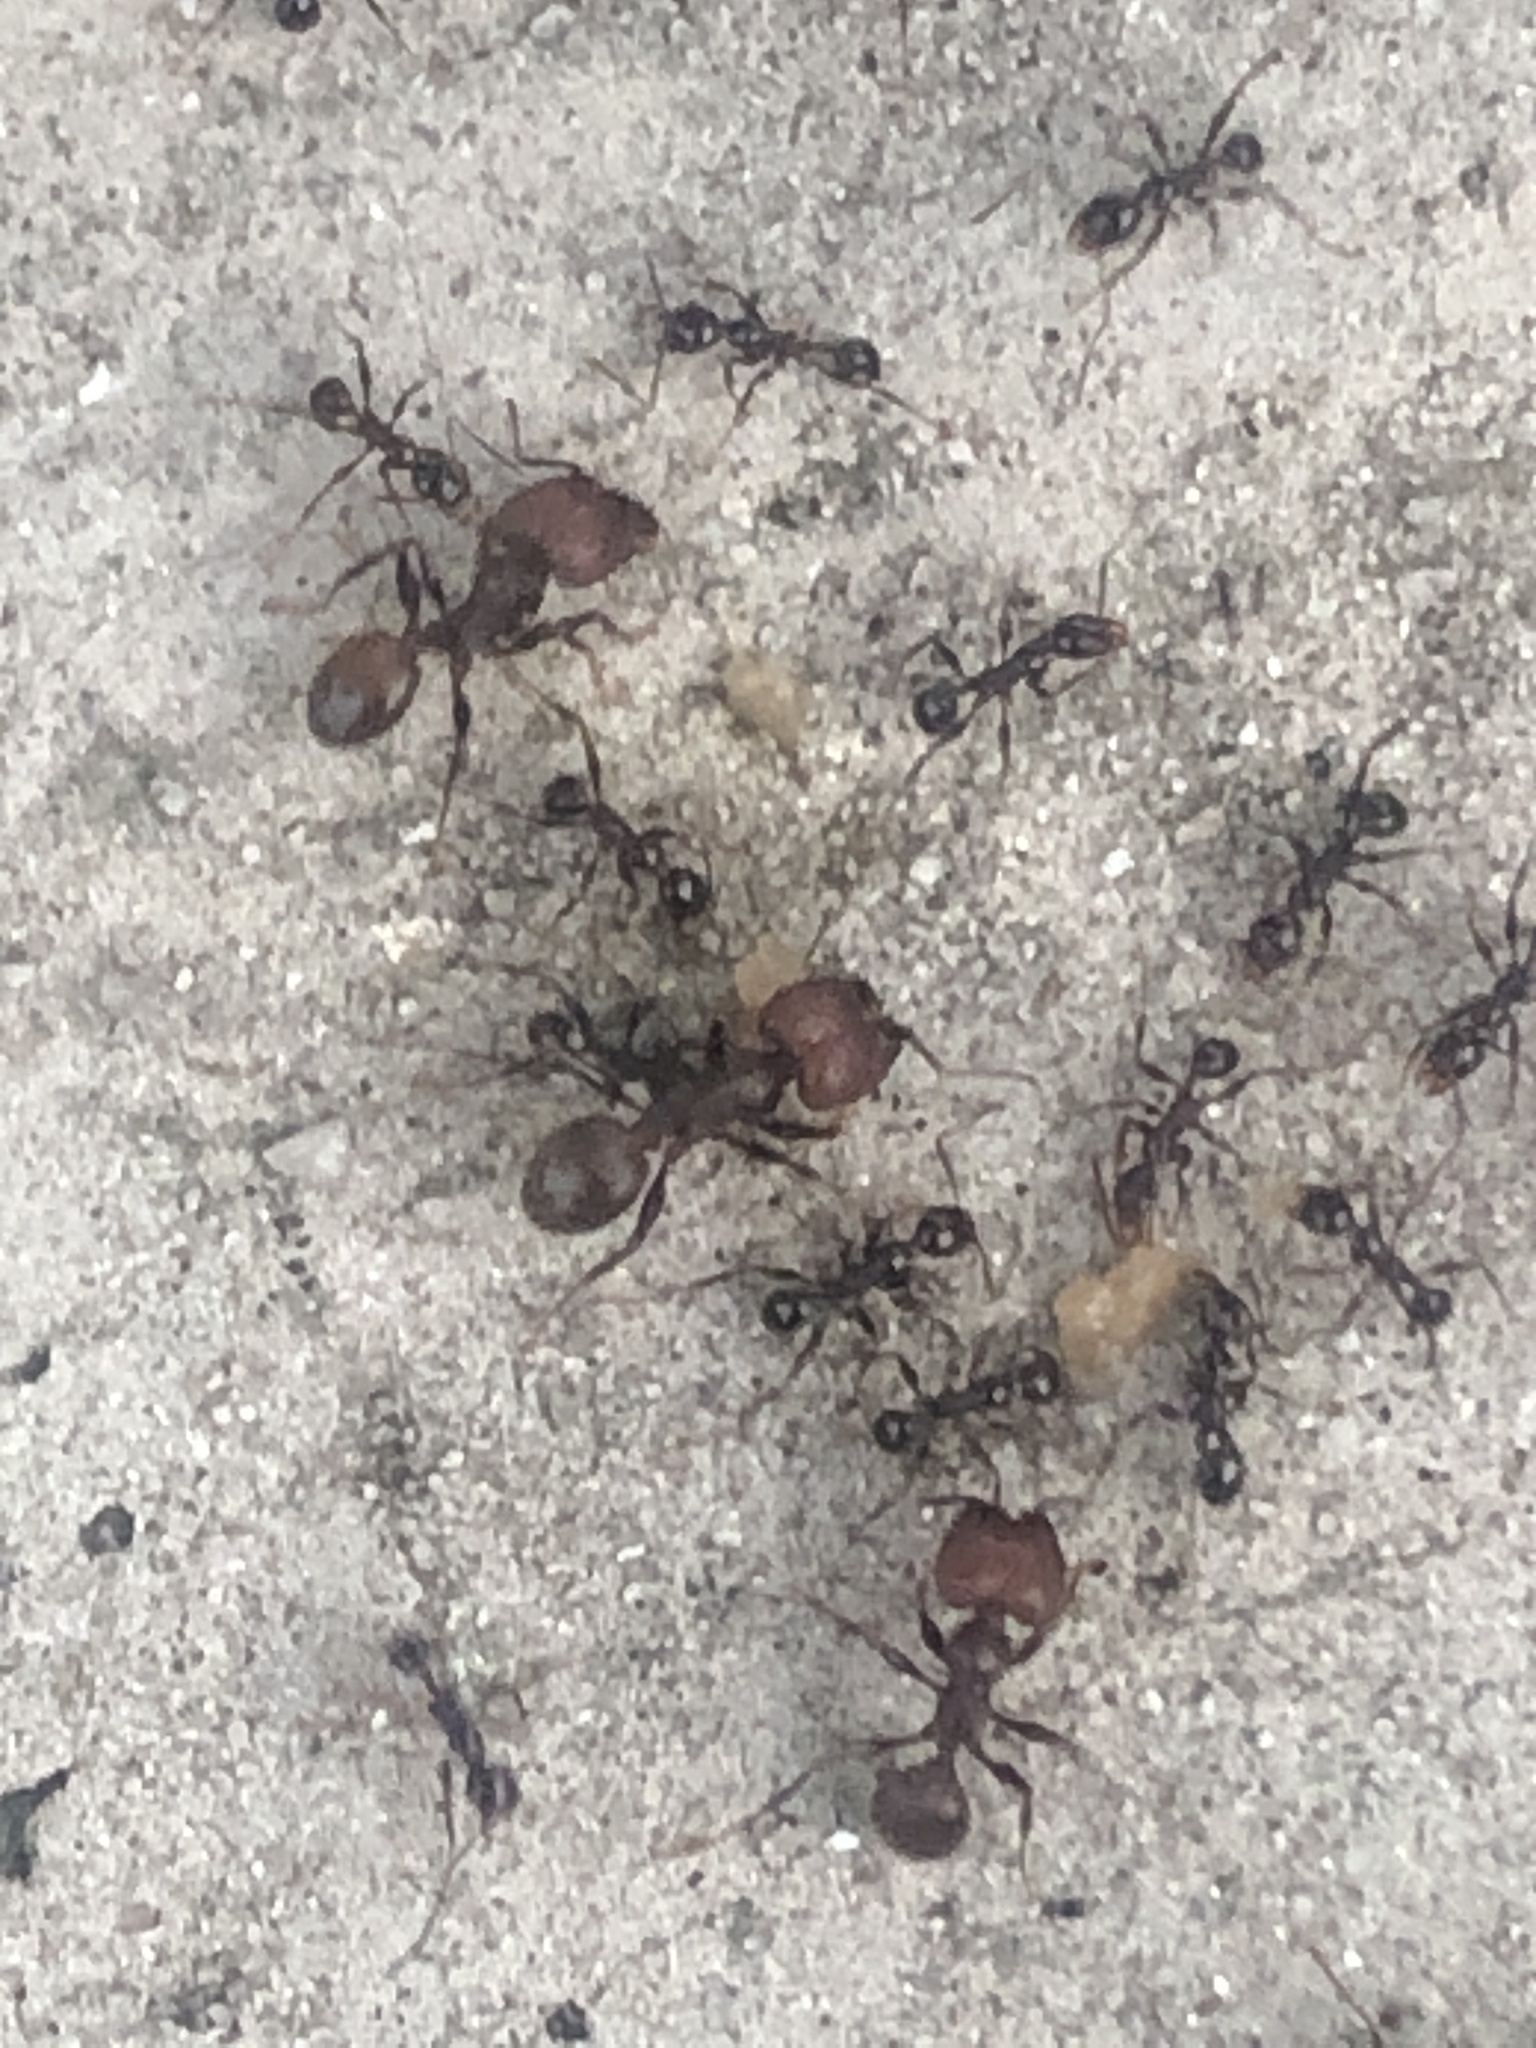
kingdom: Animalia
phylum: Arthropoda
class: Insecta
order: Hymenoptera
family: Formicidae
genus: Pheidole
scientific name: Pheidole obscurithorax
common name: Obscure big-headed ant
